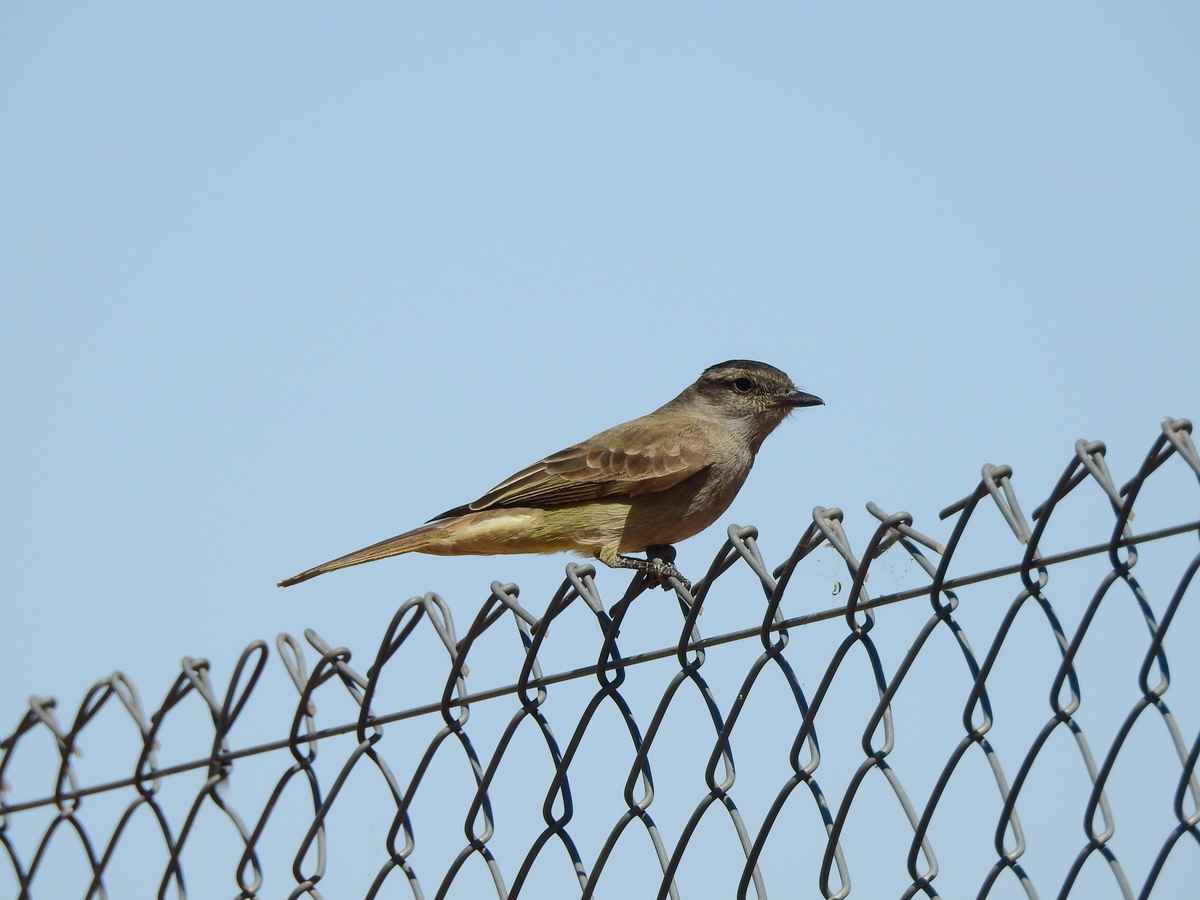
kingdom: Animalia
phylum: Chordata
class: Aves
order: Passeriformes
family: Tyrannidae
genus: Empidonomus
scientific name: Empidonomus aurantioatrocristatus
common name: Crowned slaty flycatcher
